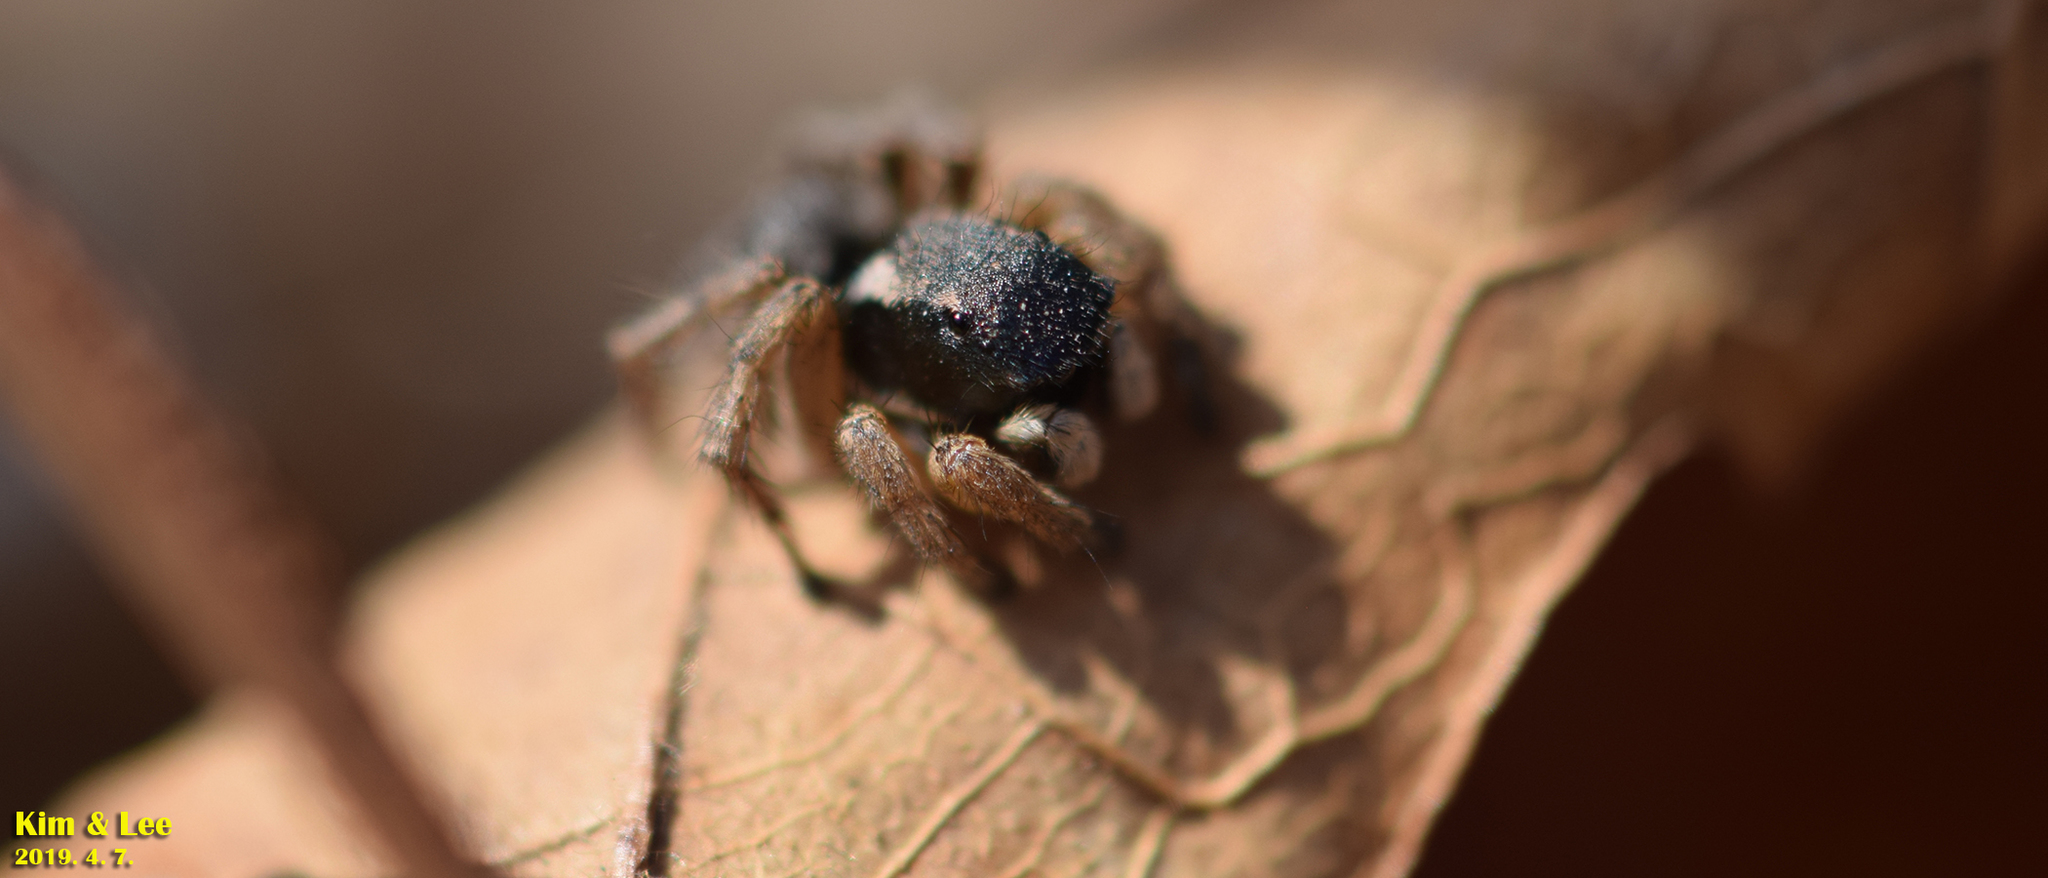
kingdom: Animalia
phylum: Arthropoda
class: Arachnida
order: Araneae
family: Salticidae
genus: Asianellus
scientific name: Asianellus festivus
